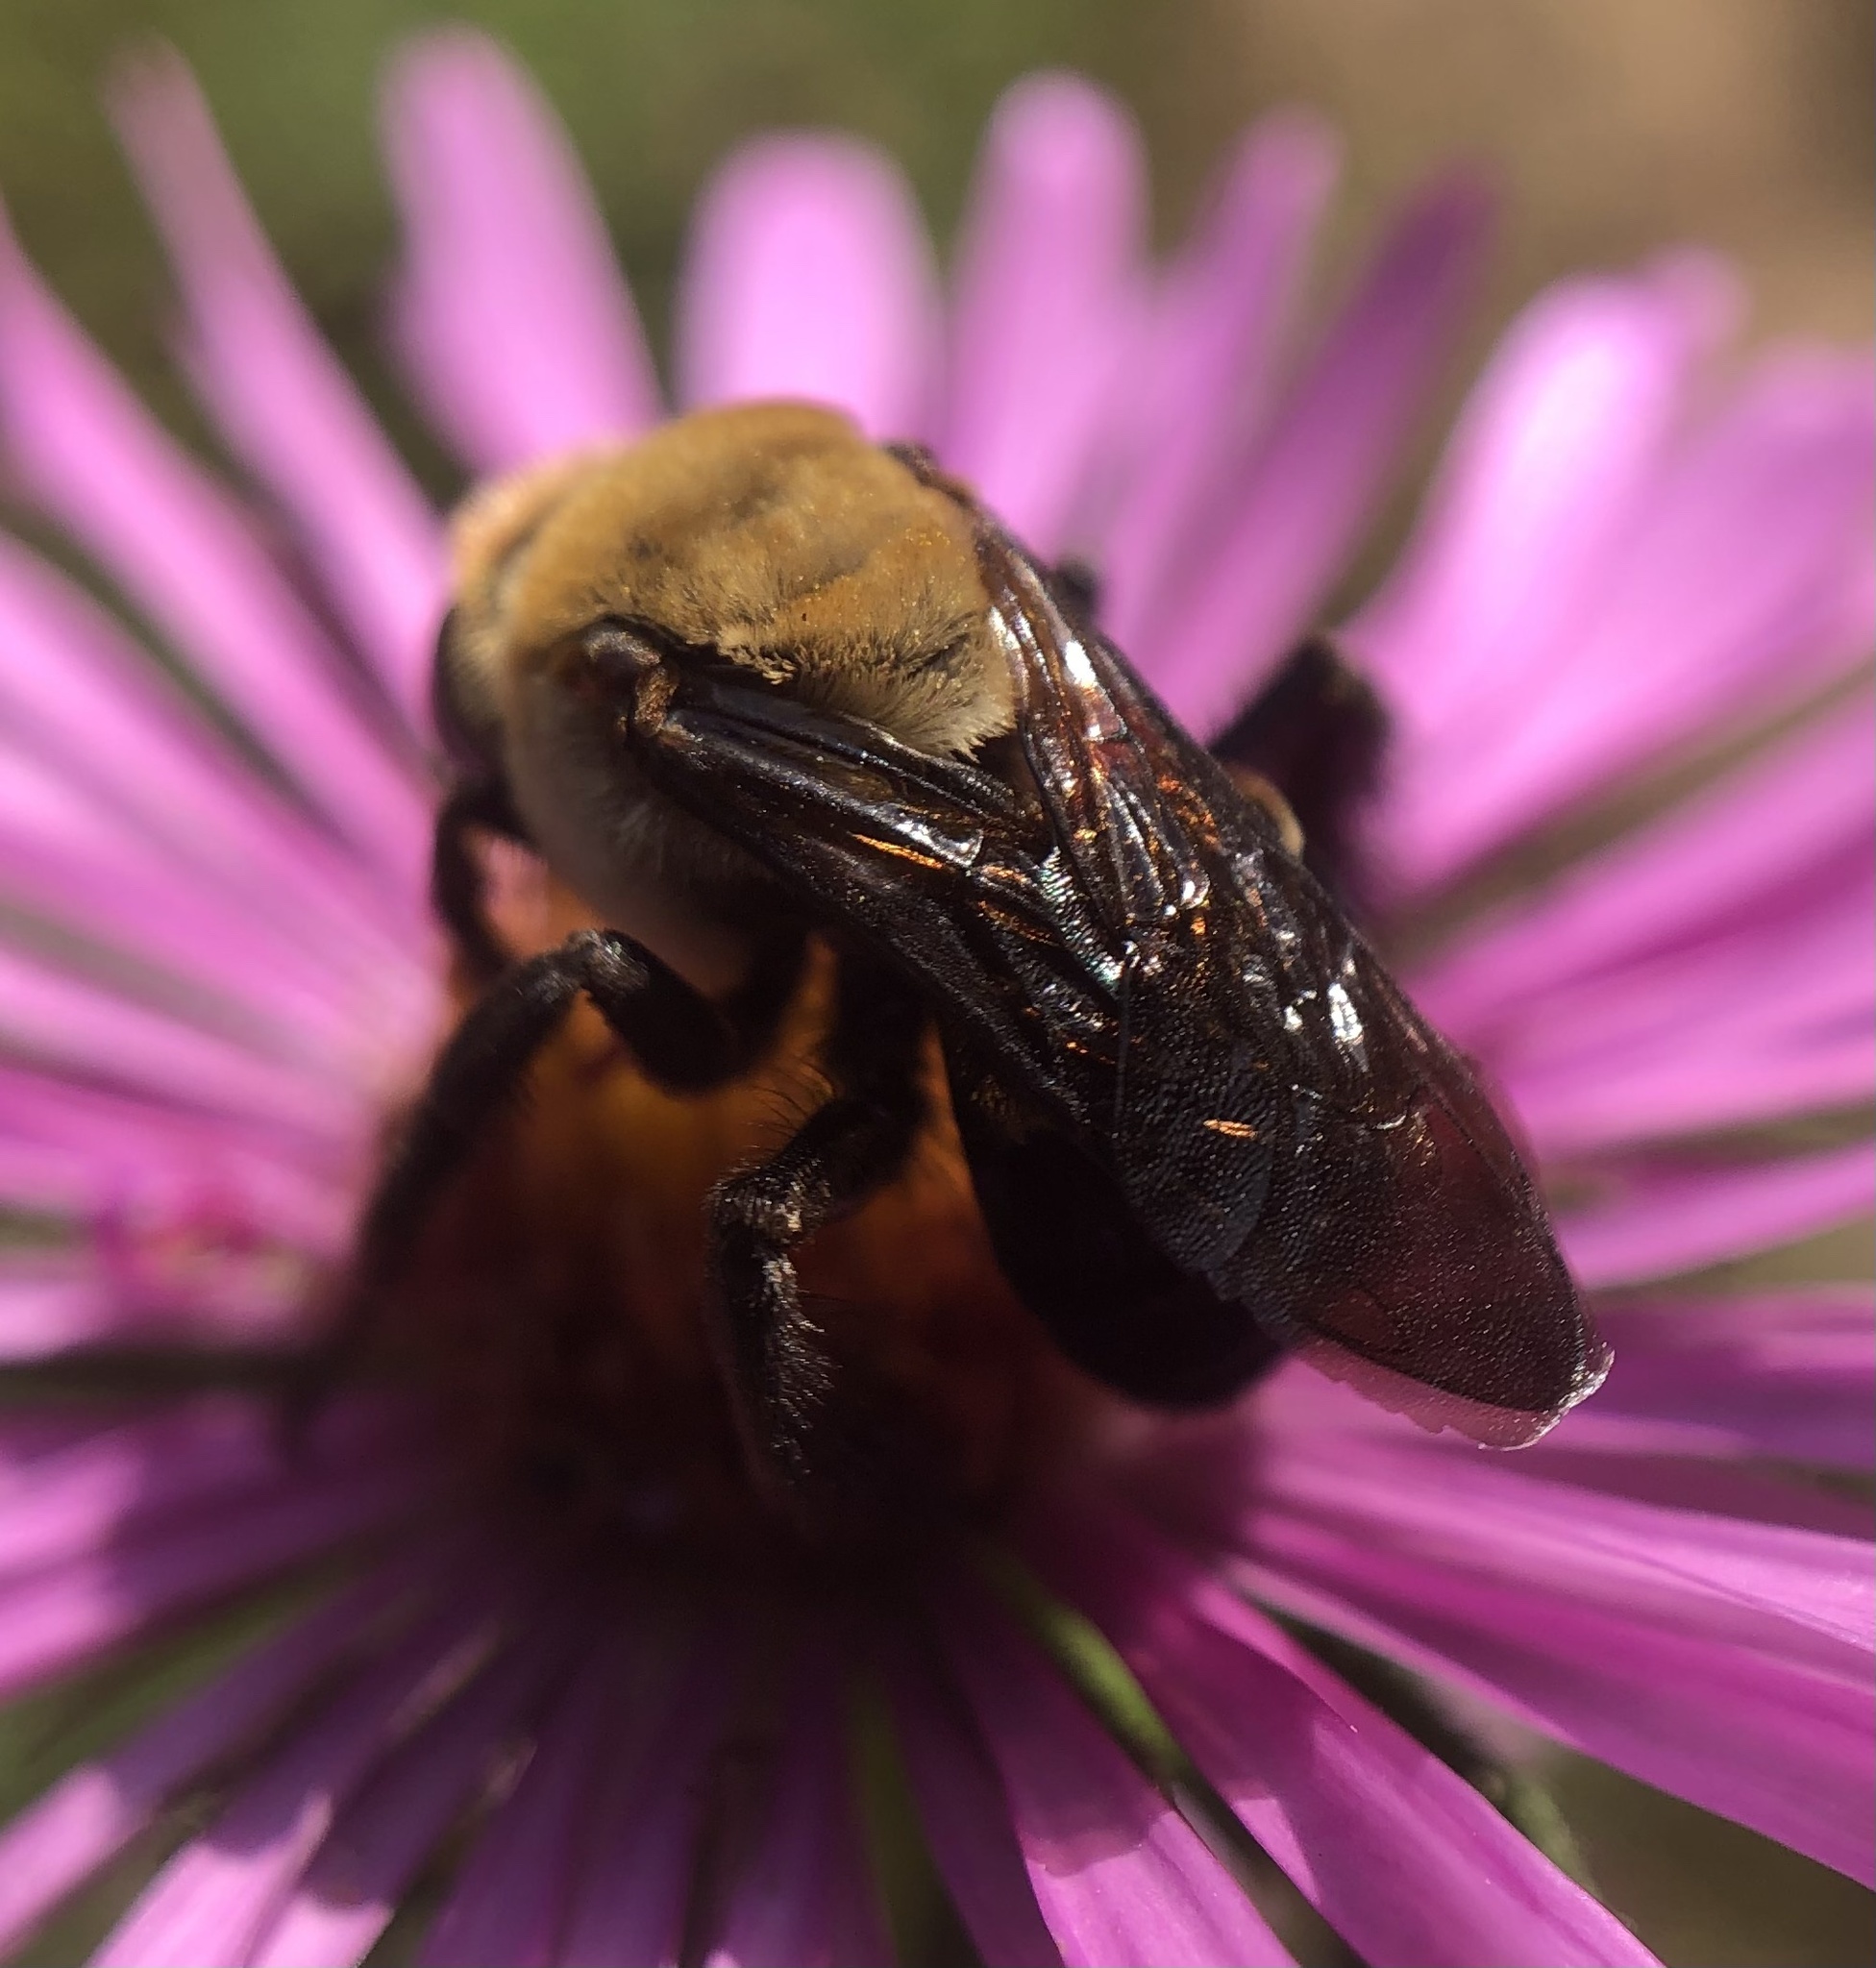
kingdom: Animalia
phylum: Arthropoda
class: Insecta
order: Hymenoptera
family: Apidae
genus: Ptilothrix
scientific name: Ptilothrix bombiformis
